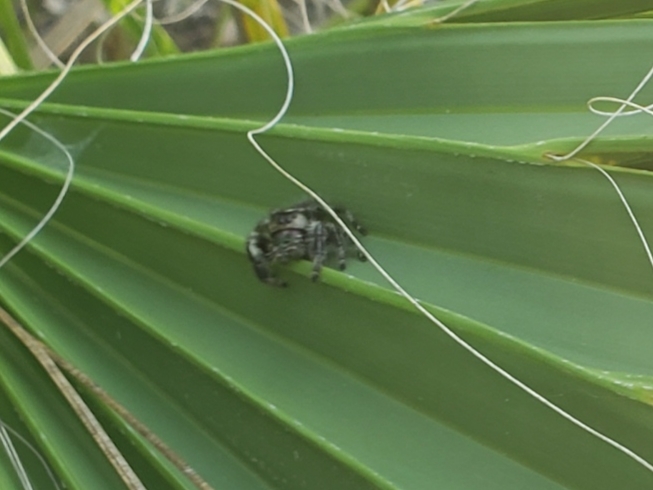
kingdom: Plantae
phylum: Tracheophyta
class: Liliopsida
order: Arecales
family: Arecaceae
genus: Sabal
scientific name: Sabal palmetto
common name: Blue palmetto
